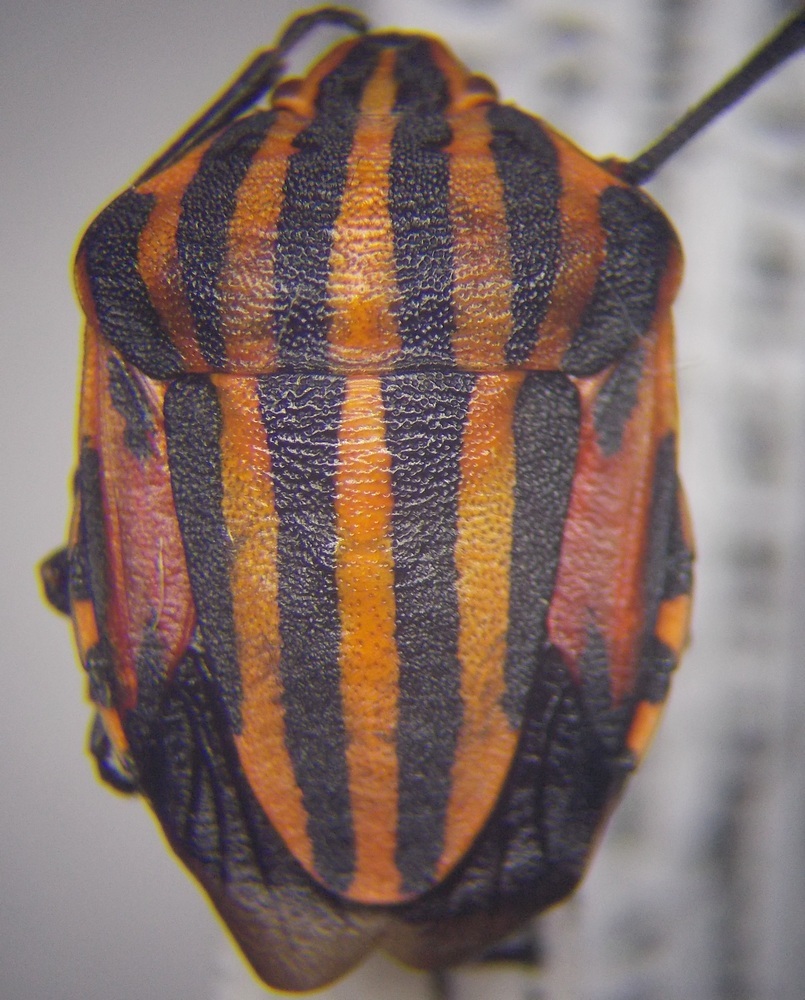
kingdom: Animalia
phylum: Arthropoda
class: Insecta
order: Hemiptera
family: Pentatomidae
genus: Graphosoma
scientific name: Graphosoma italicum
